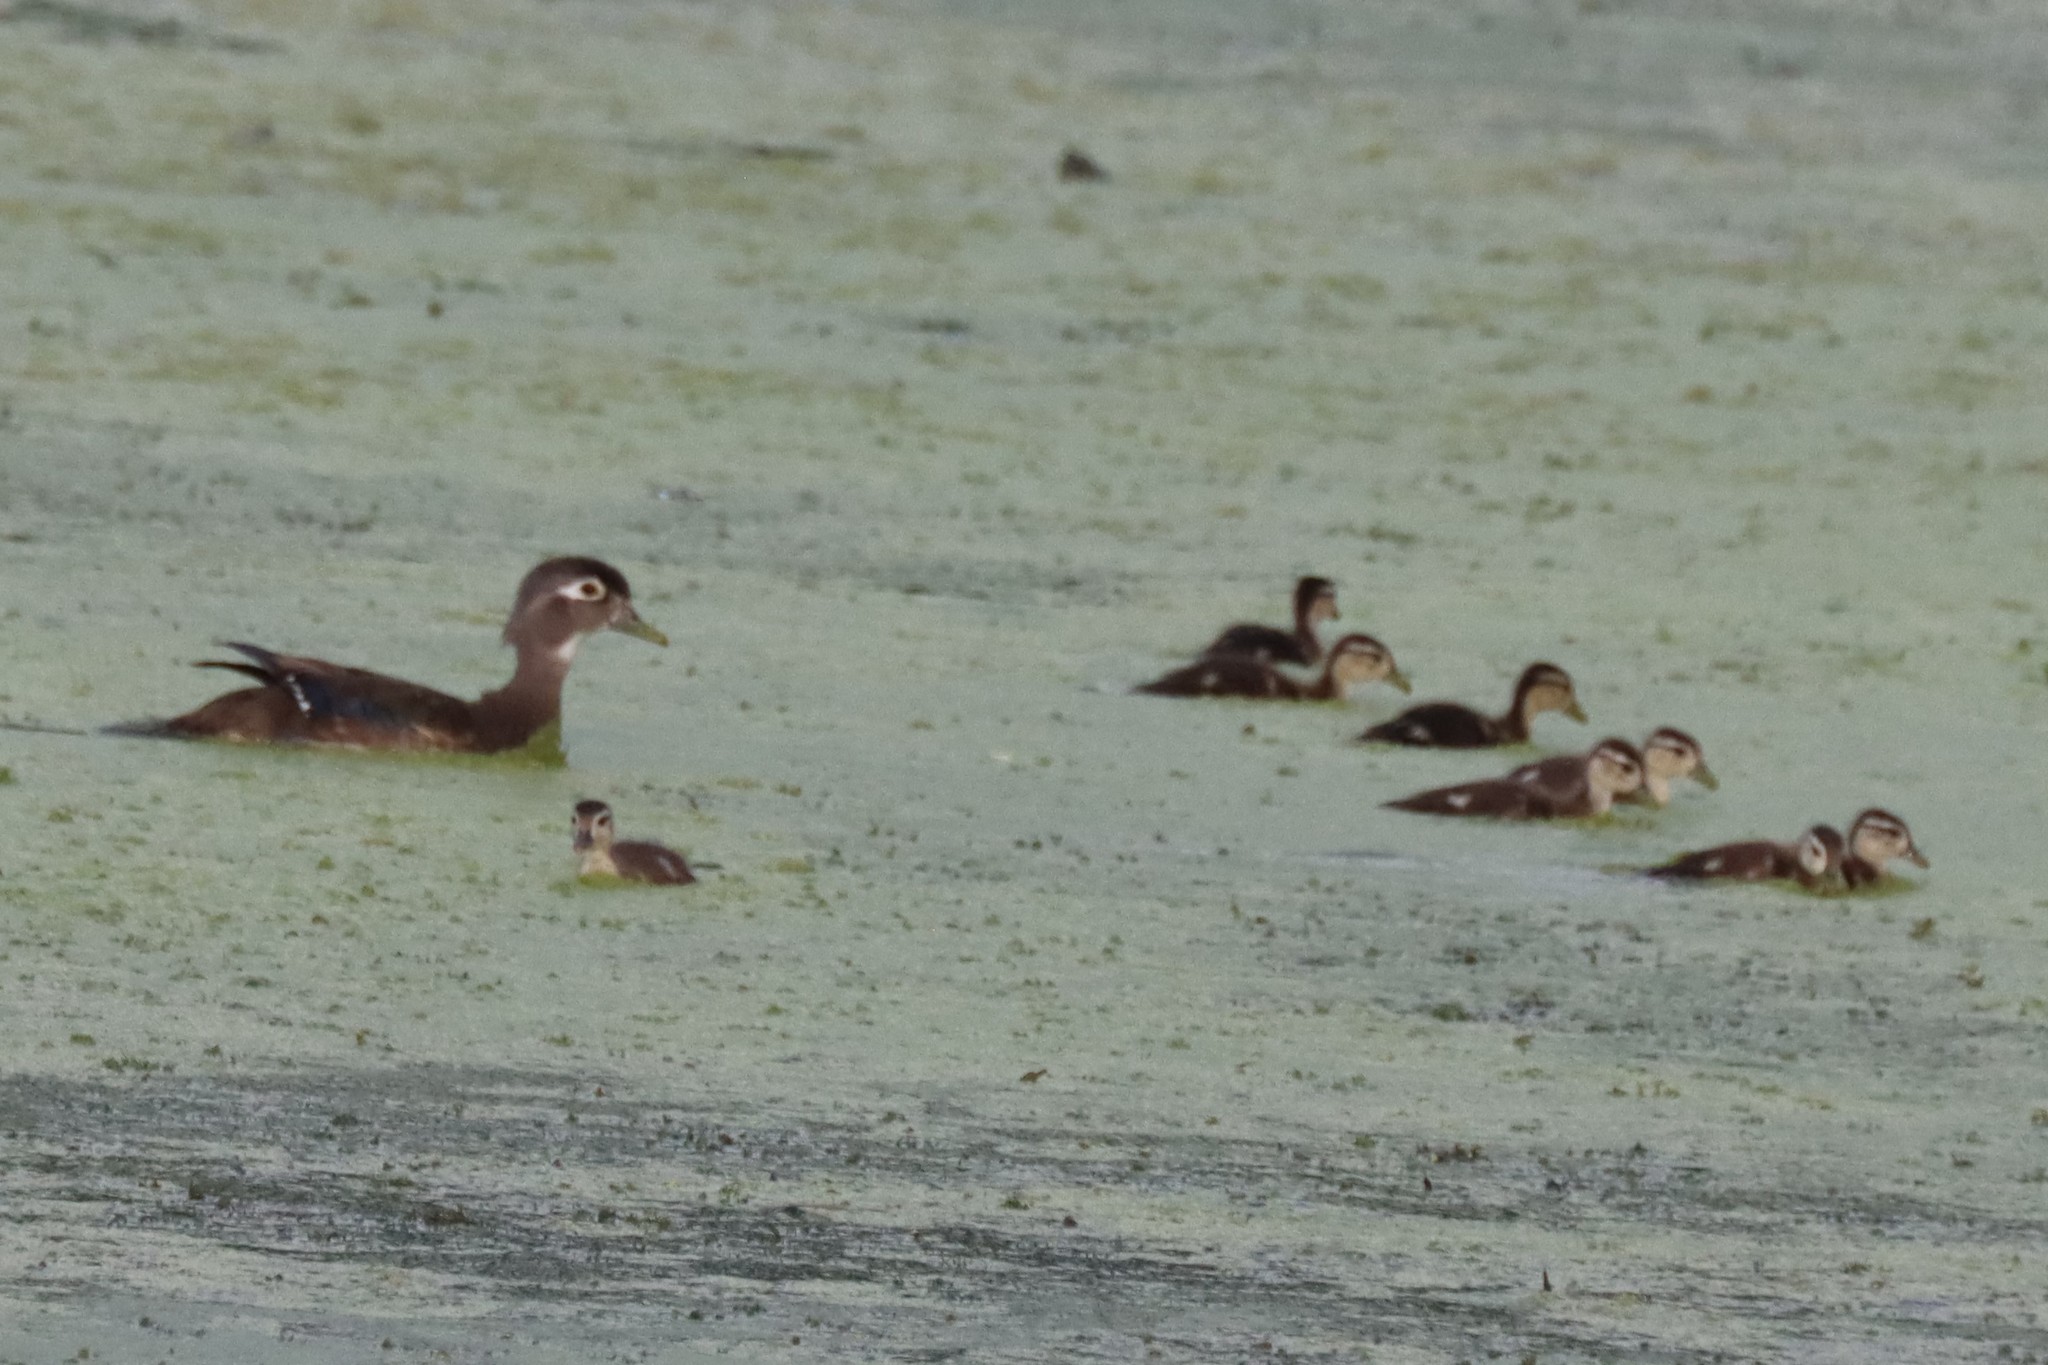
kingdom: Animalia
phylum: Chordata
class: Aves
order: Anseriformes
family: Anatidae
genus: Aix
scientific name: Aix sponsa
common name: Wood duck
